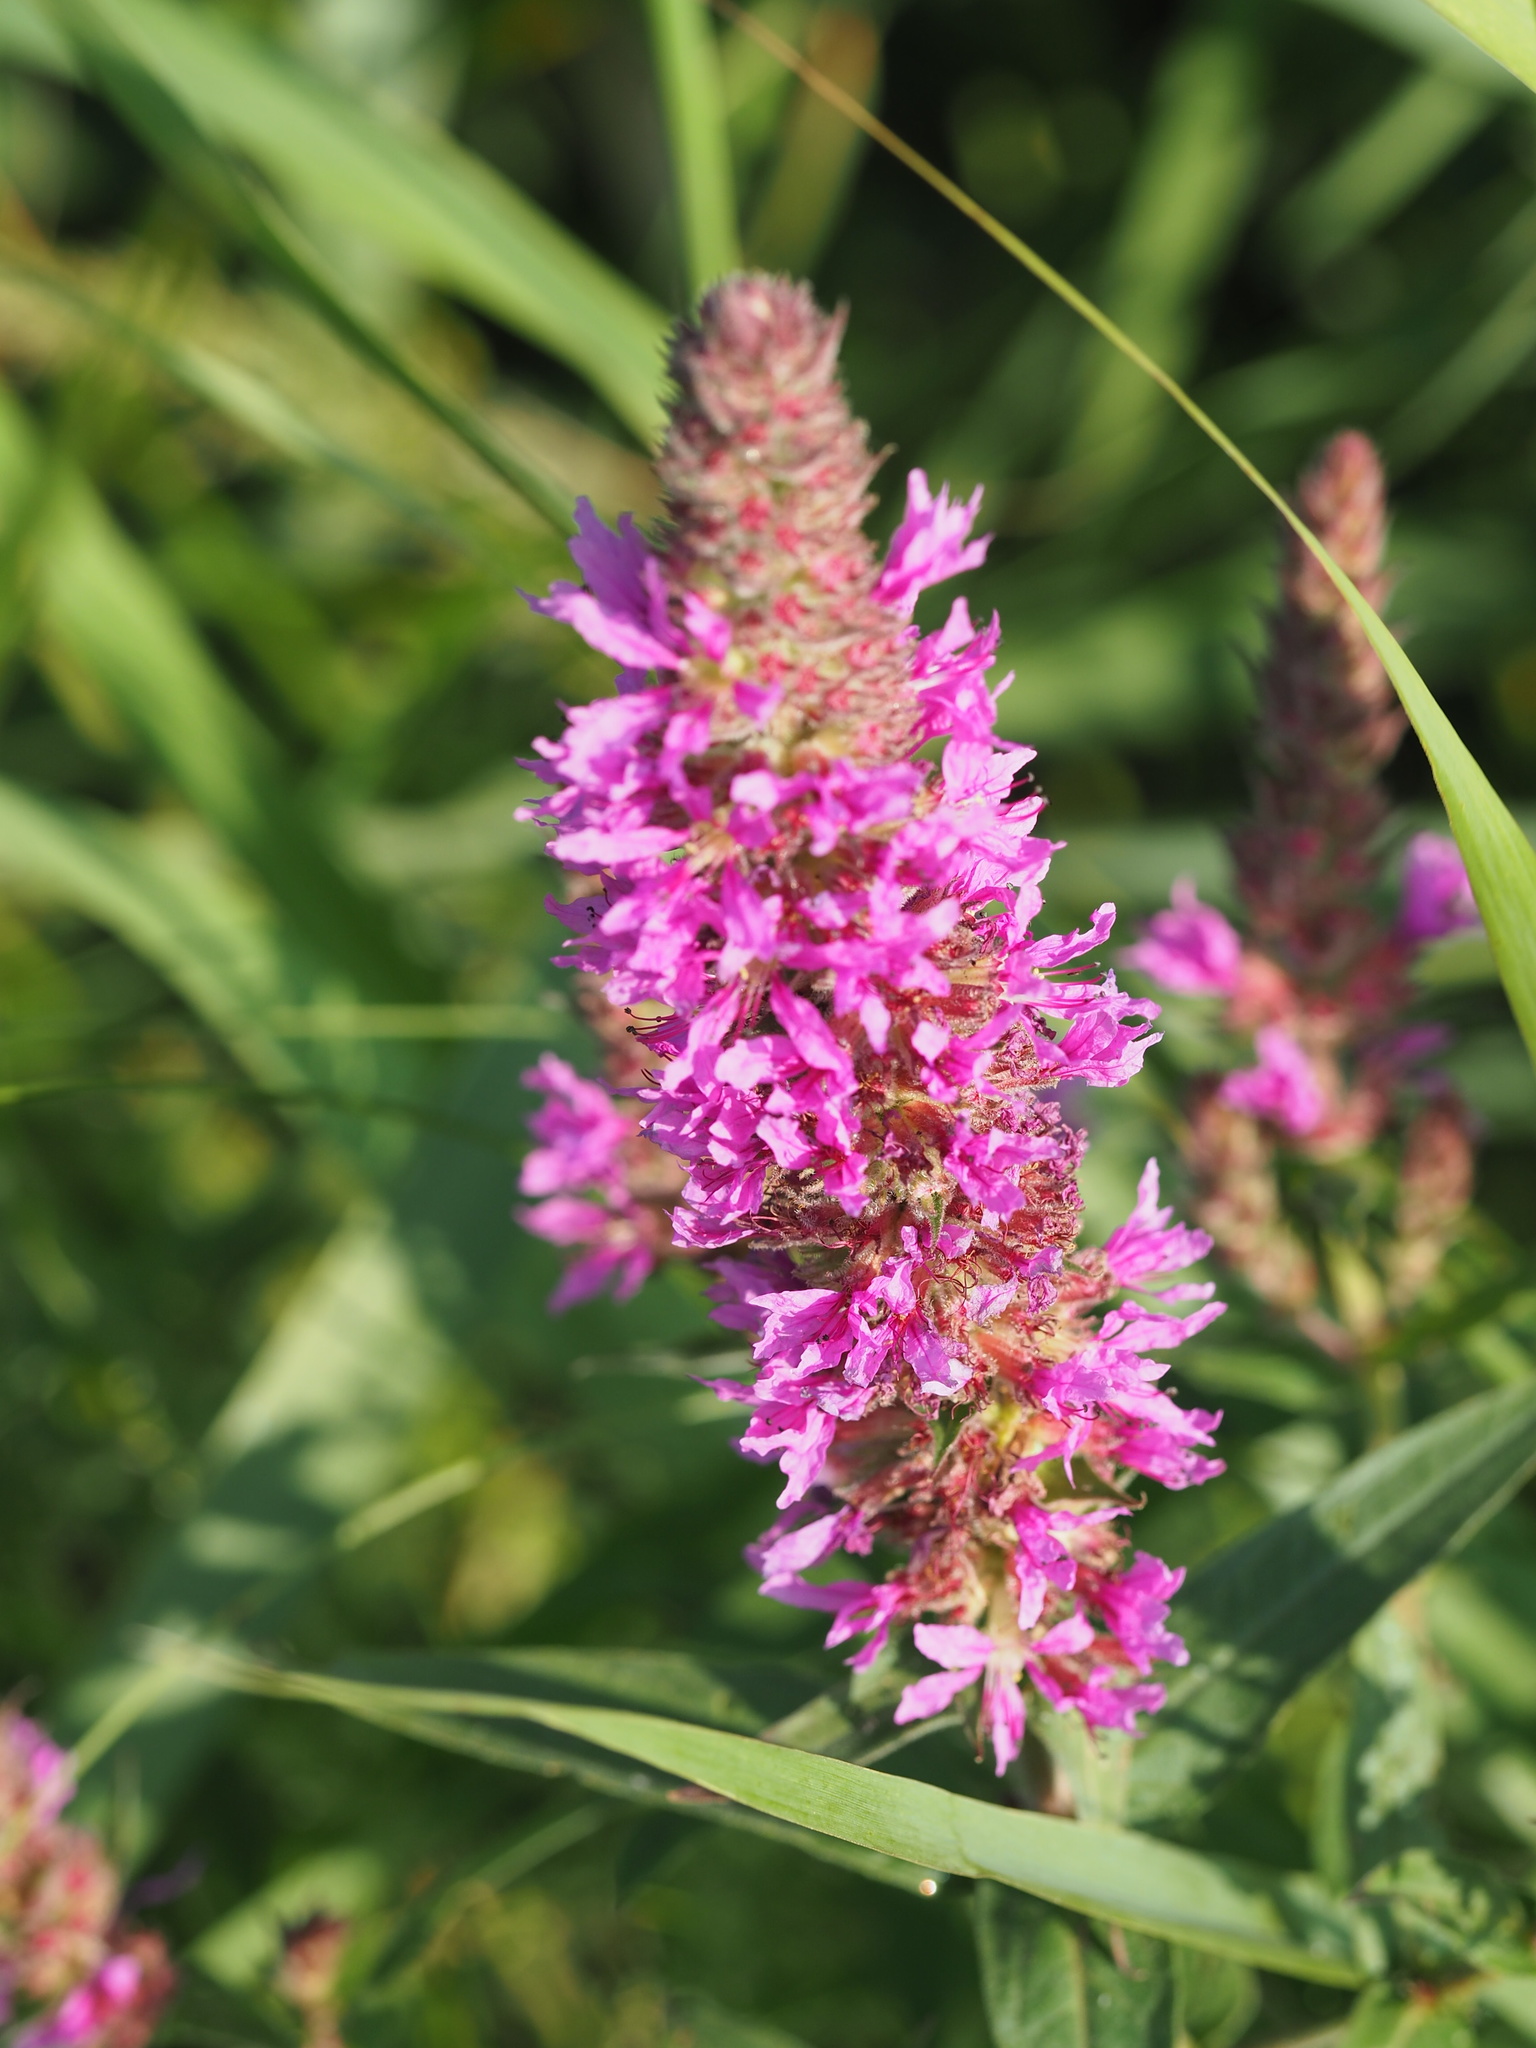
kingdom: Plantae
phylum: Tracheophyta
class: Magnoliopsida
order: Myrtales
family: Lythraceae
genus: Lythrum
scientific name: Lythrum salicaria
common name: Purple loosestrife
